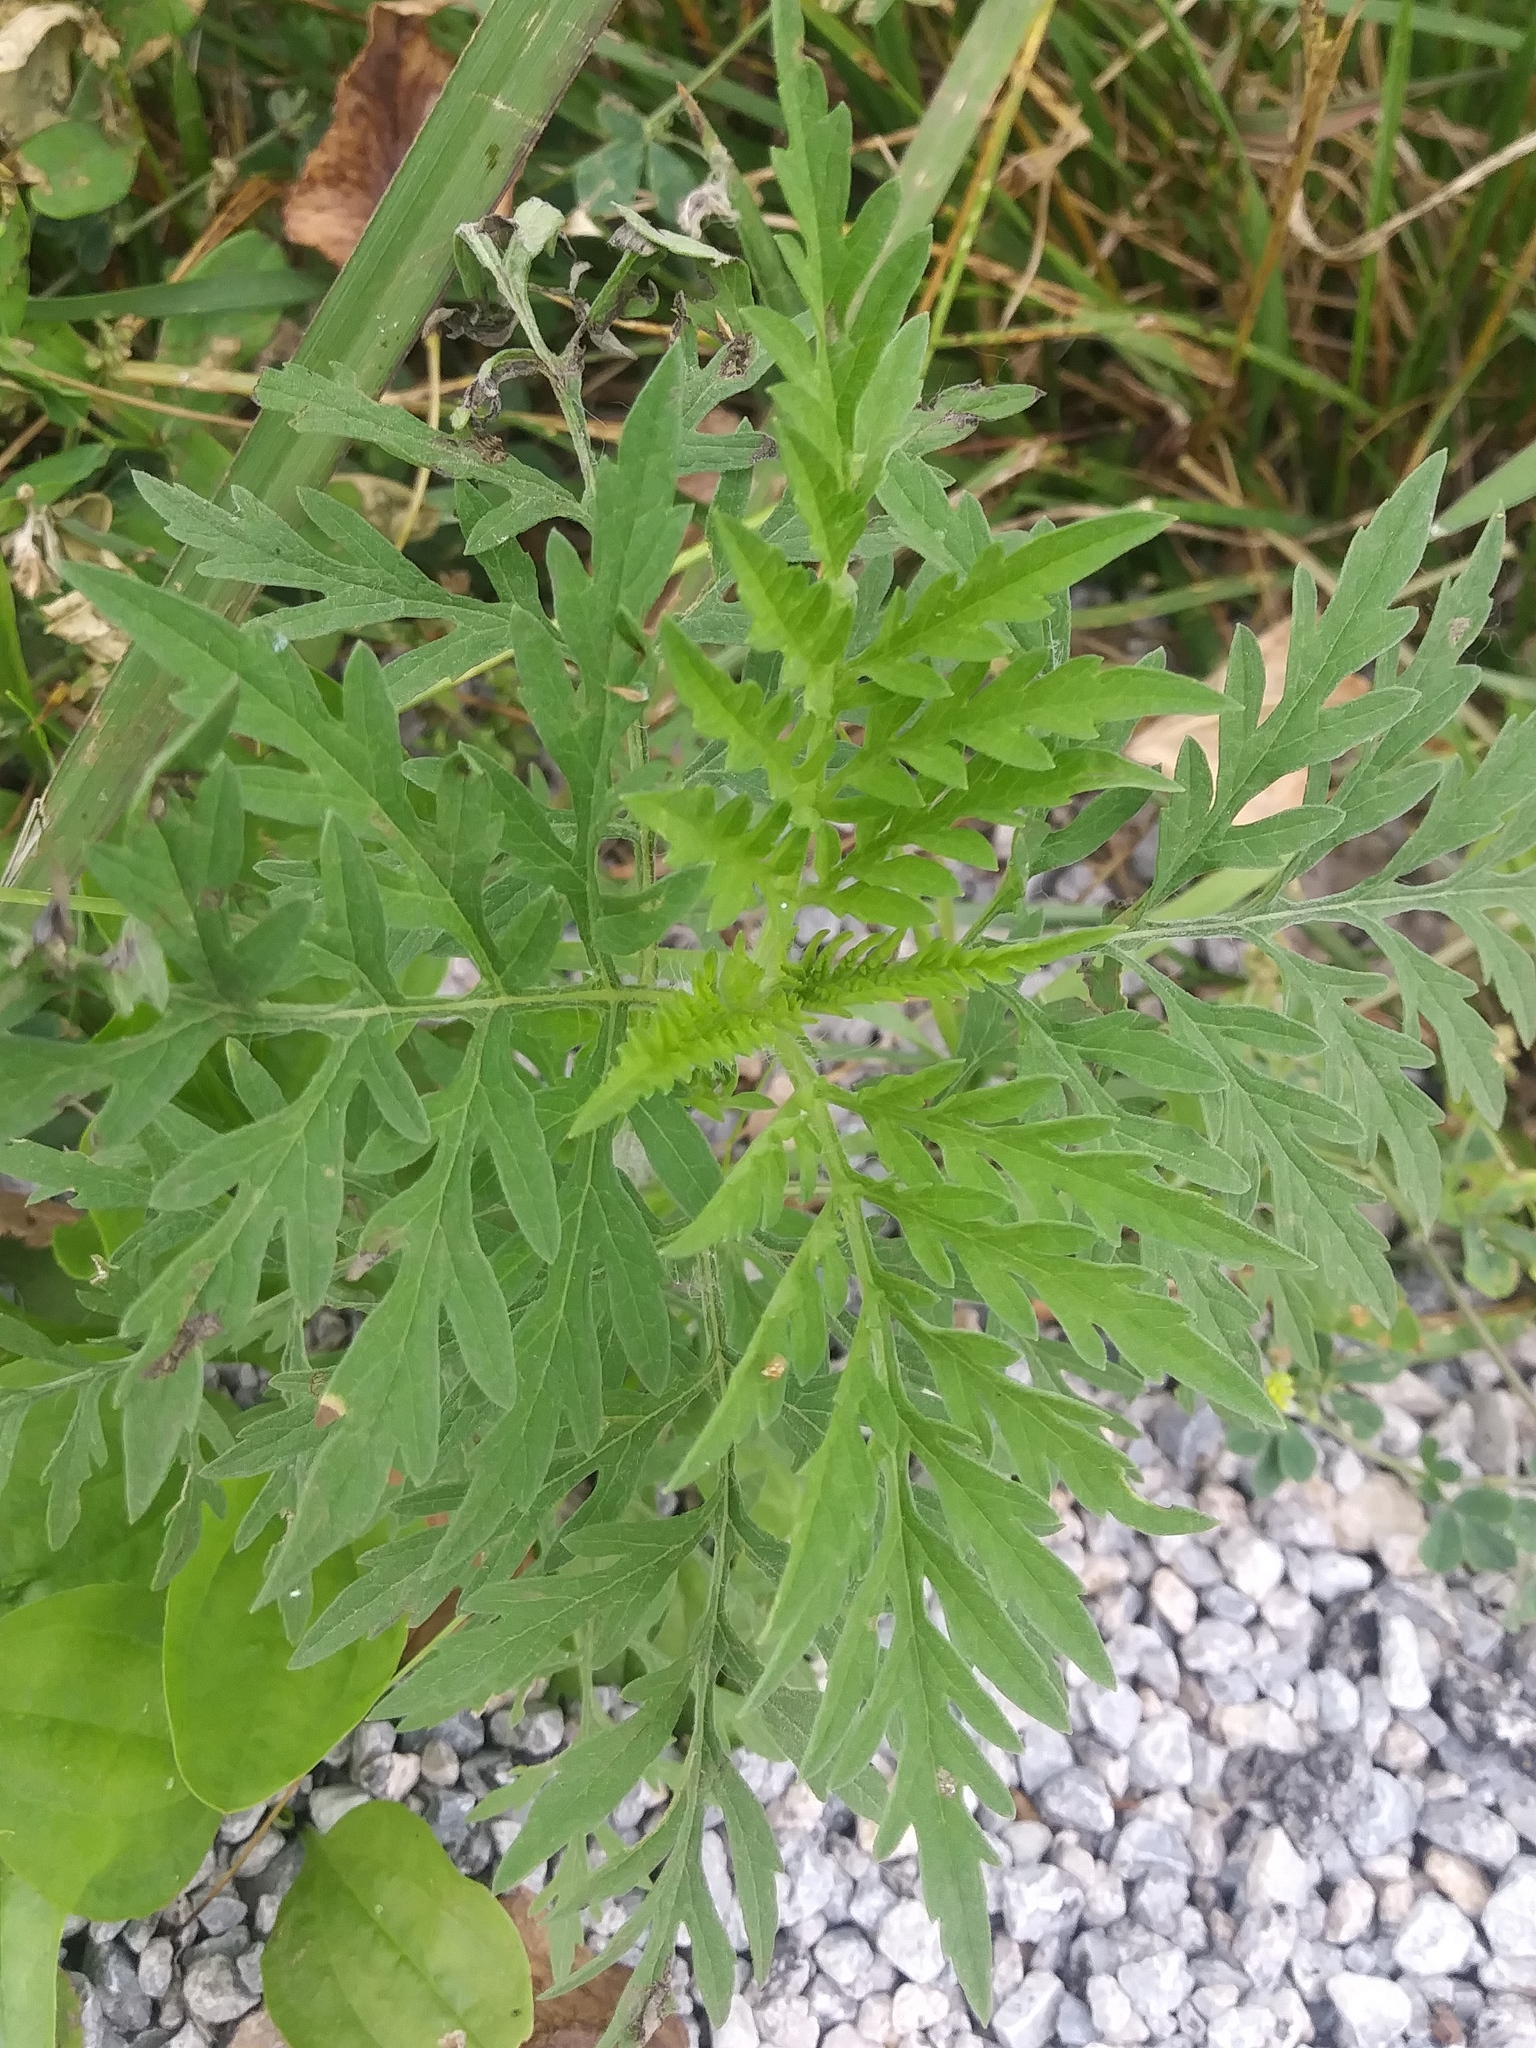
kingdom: Plantae
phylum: Tracheophyta
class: Magnoliopsida
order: Asterales
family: Asteraceae
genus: Ambrosia
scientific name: Ambrosia artemisiifolia
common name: Annual ragweed
